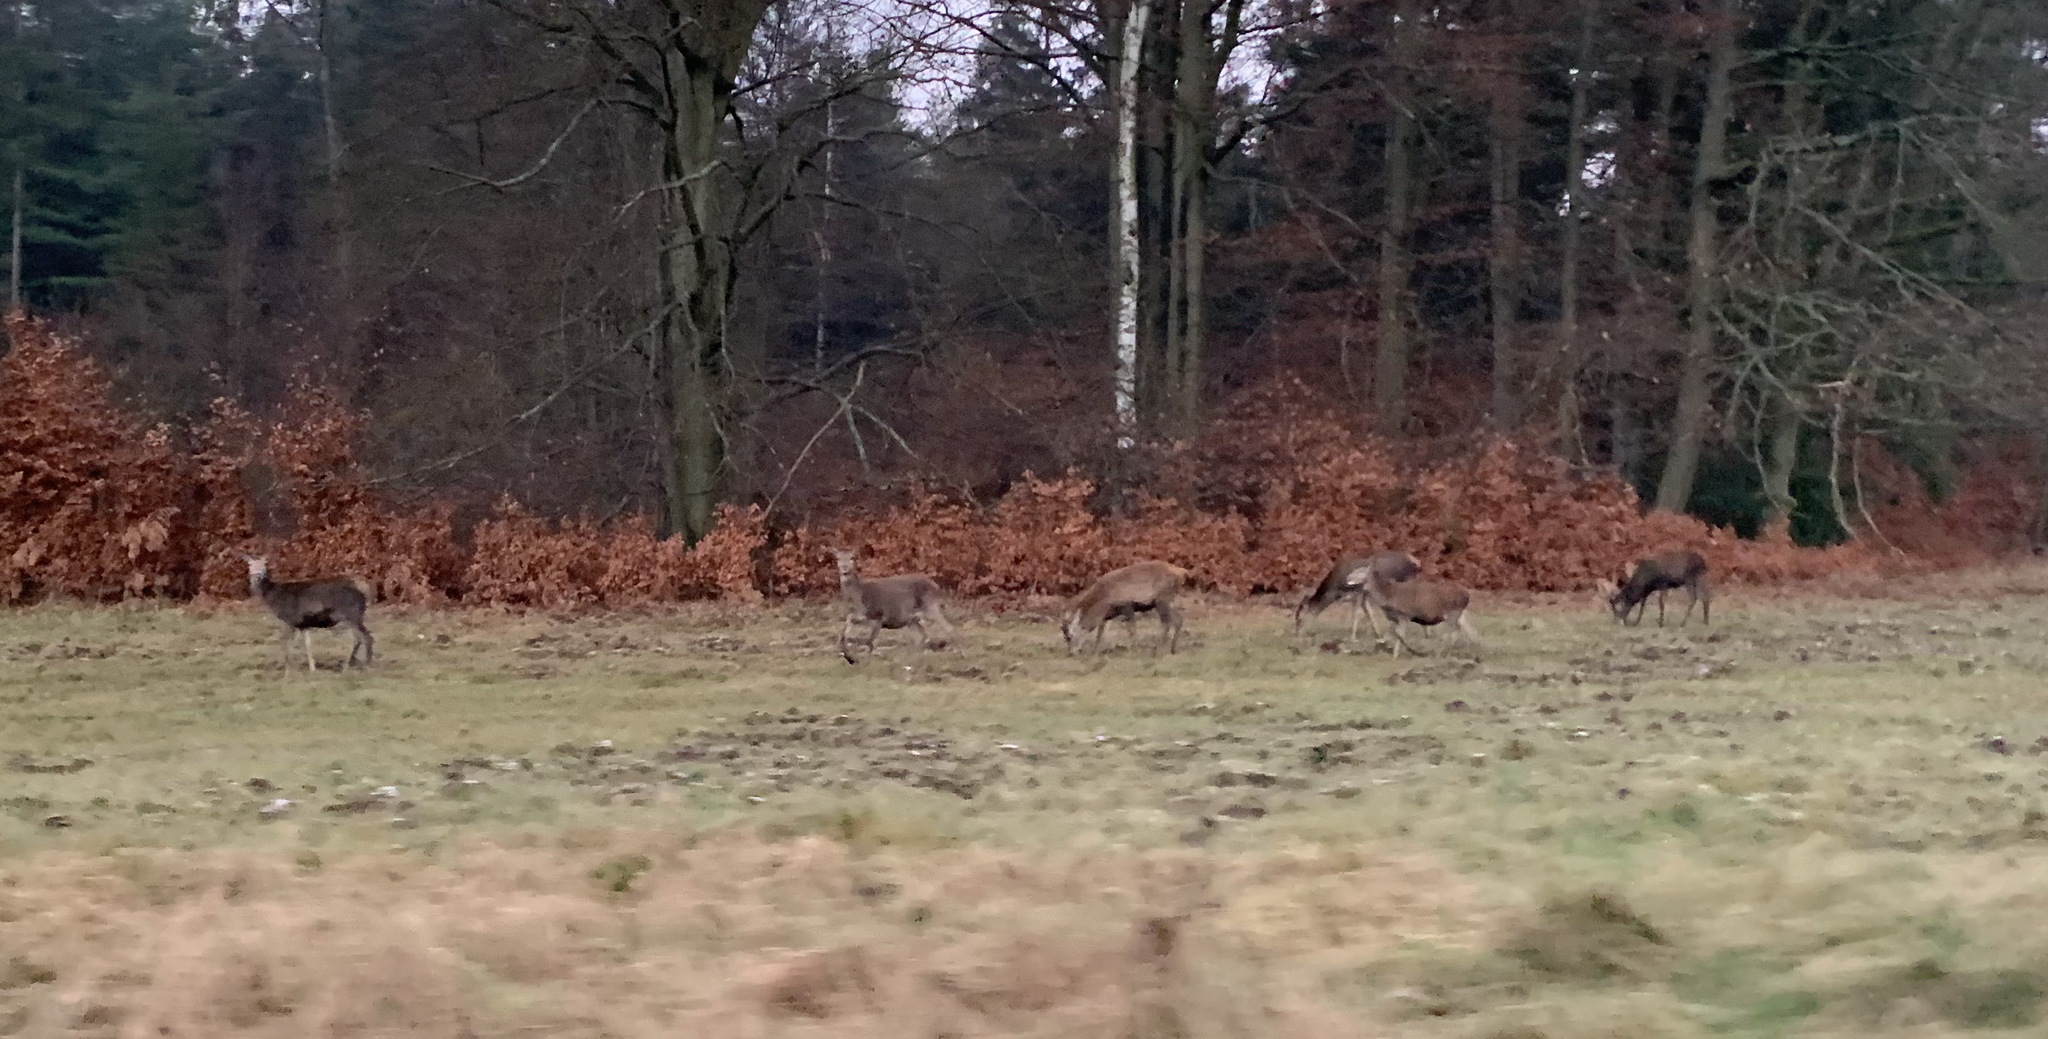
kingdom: Animalia
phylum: Chordata
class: Mammalia
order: Artiodactyla
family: Cervidae
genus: Cervus
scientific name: Cervus elaphus
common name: Red deer
